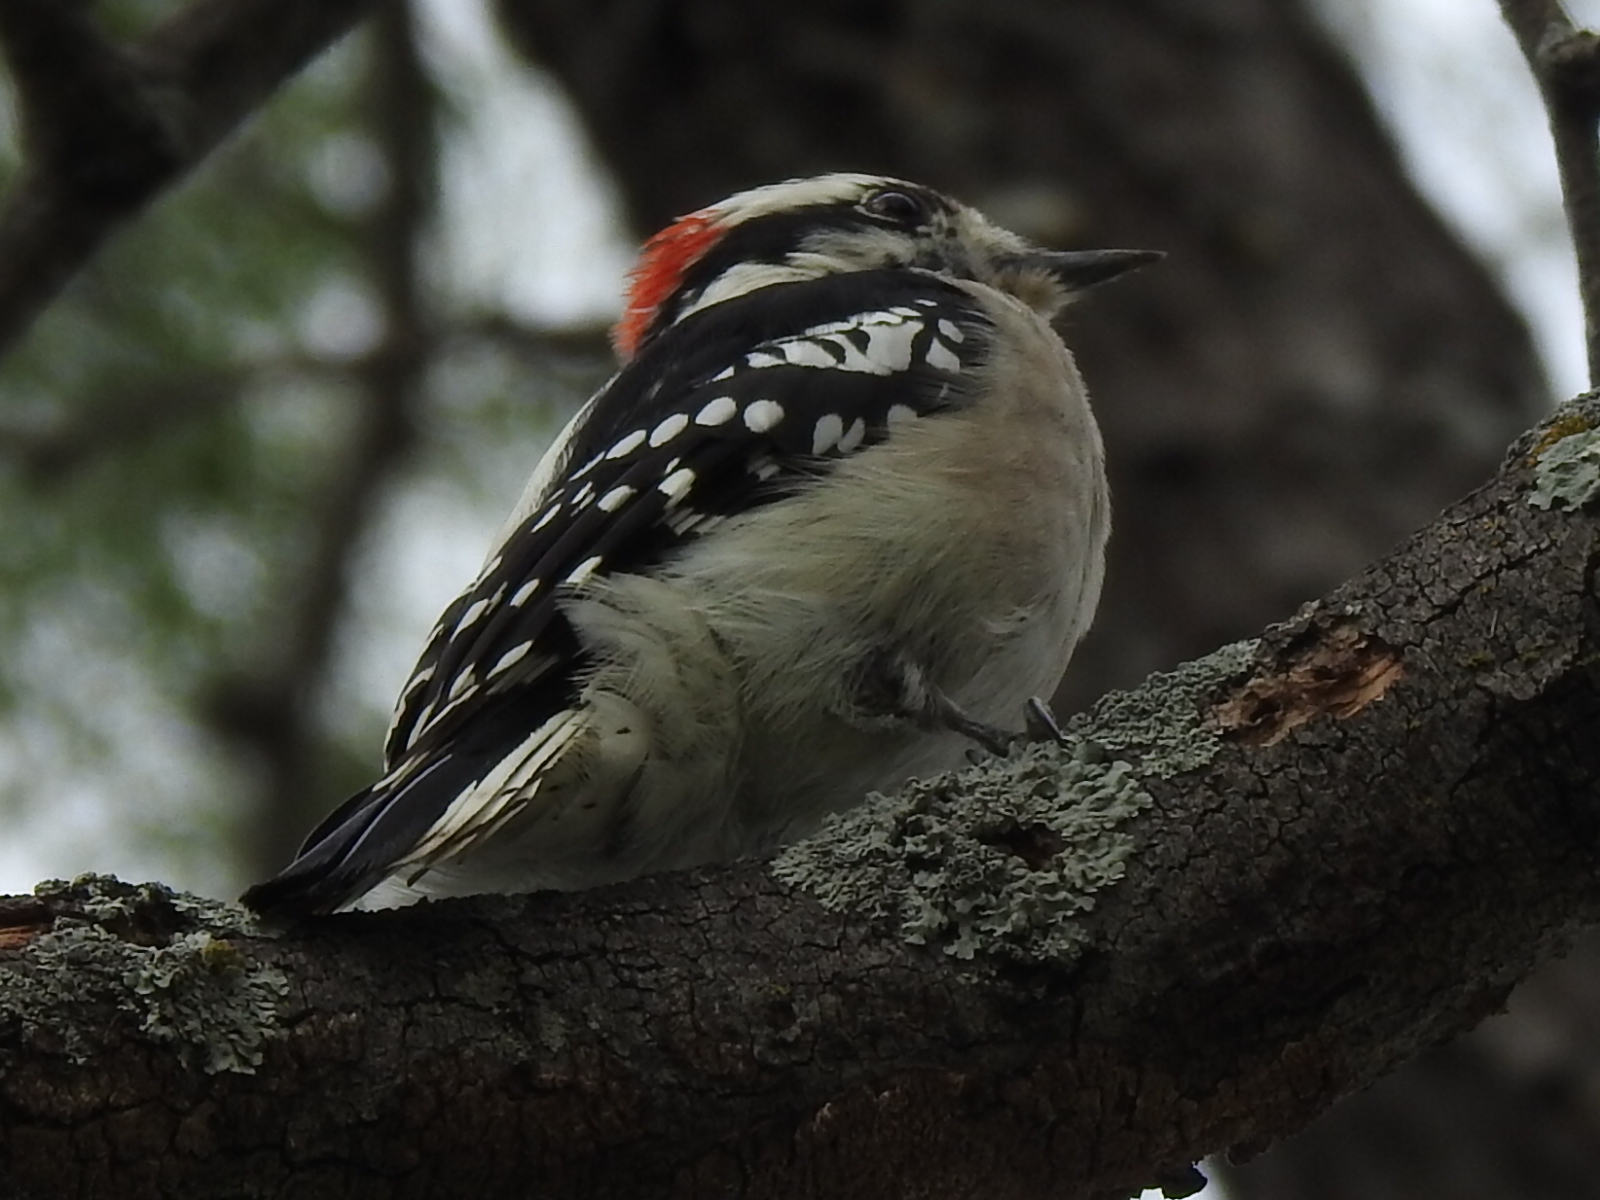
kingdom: Animalia
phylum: Chordata
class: Aves
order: Piciformes
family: Picidae
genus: Dryobates
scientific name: Dryobates pubescens
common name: Downy woodpecker
